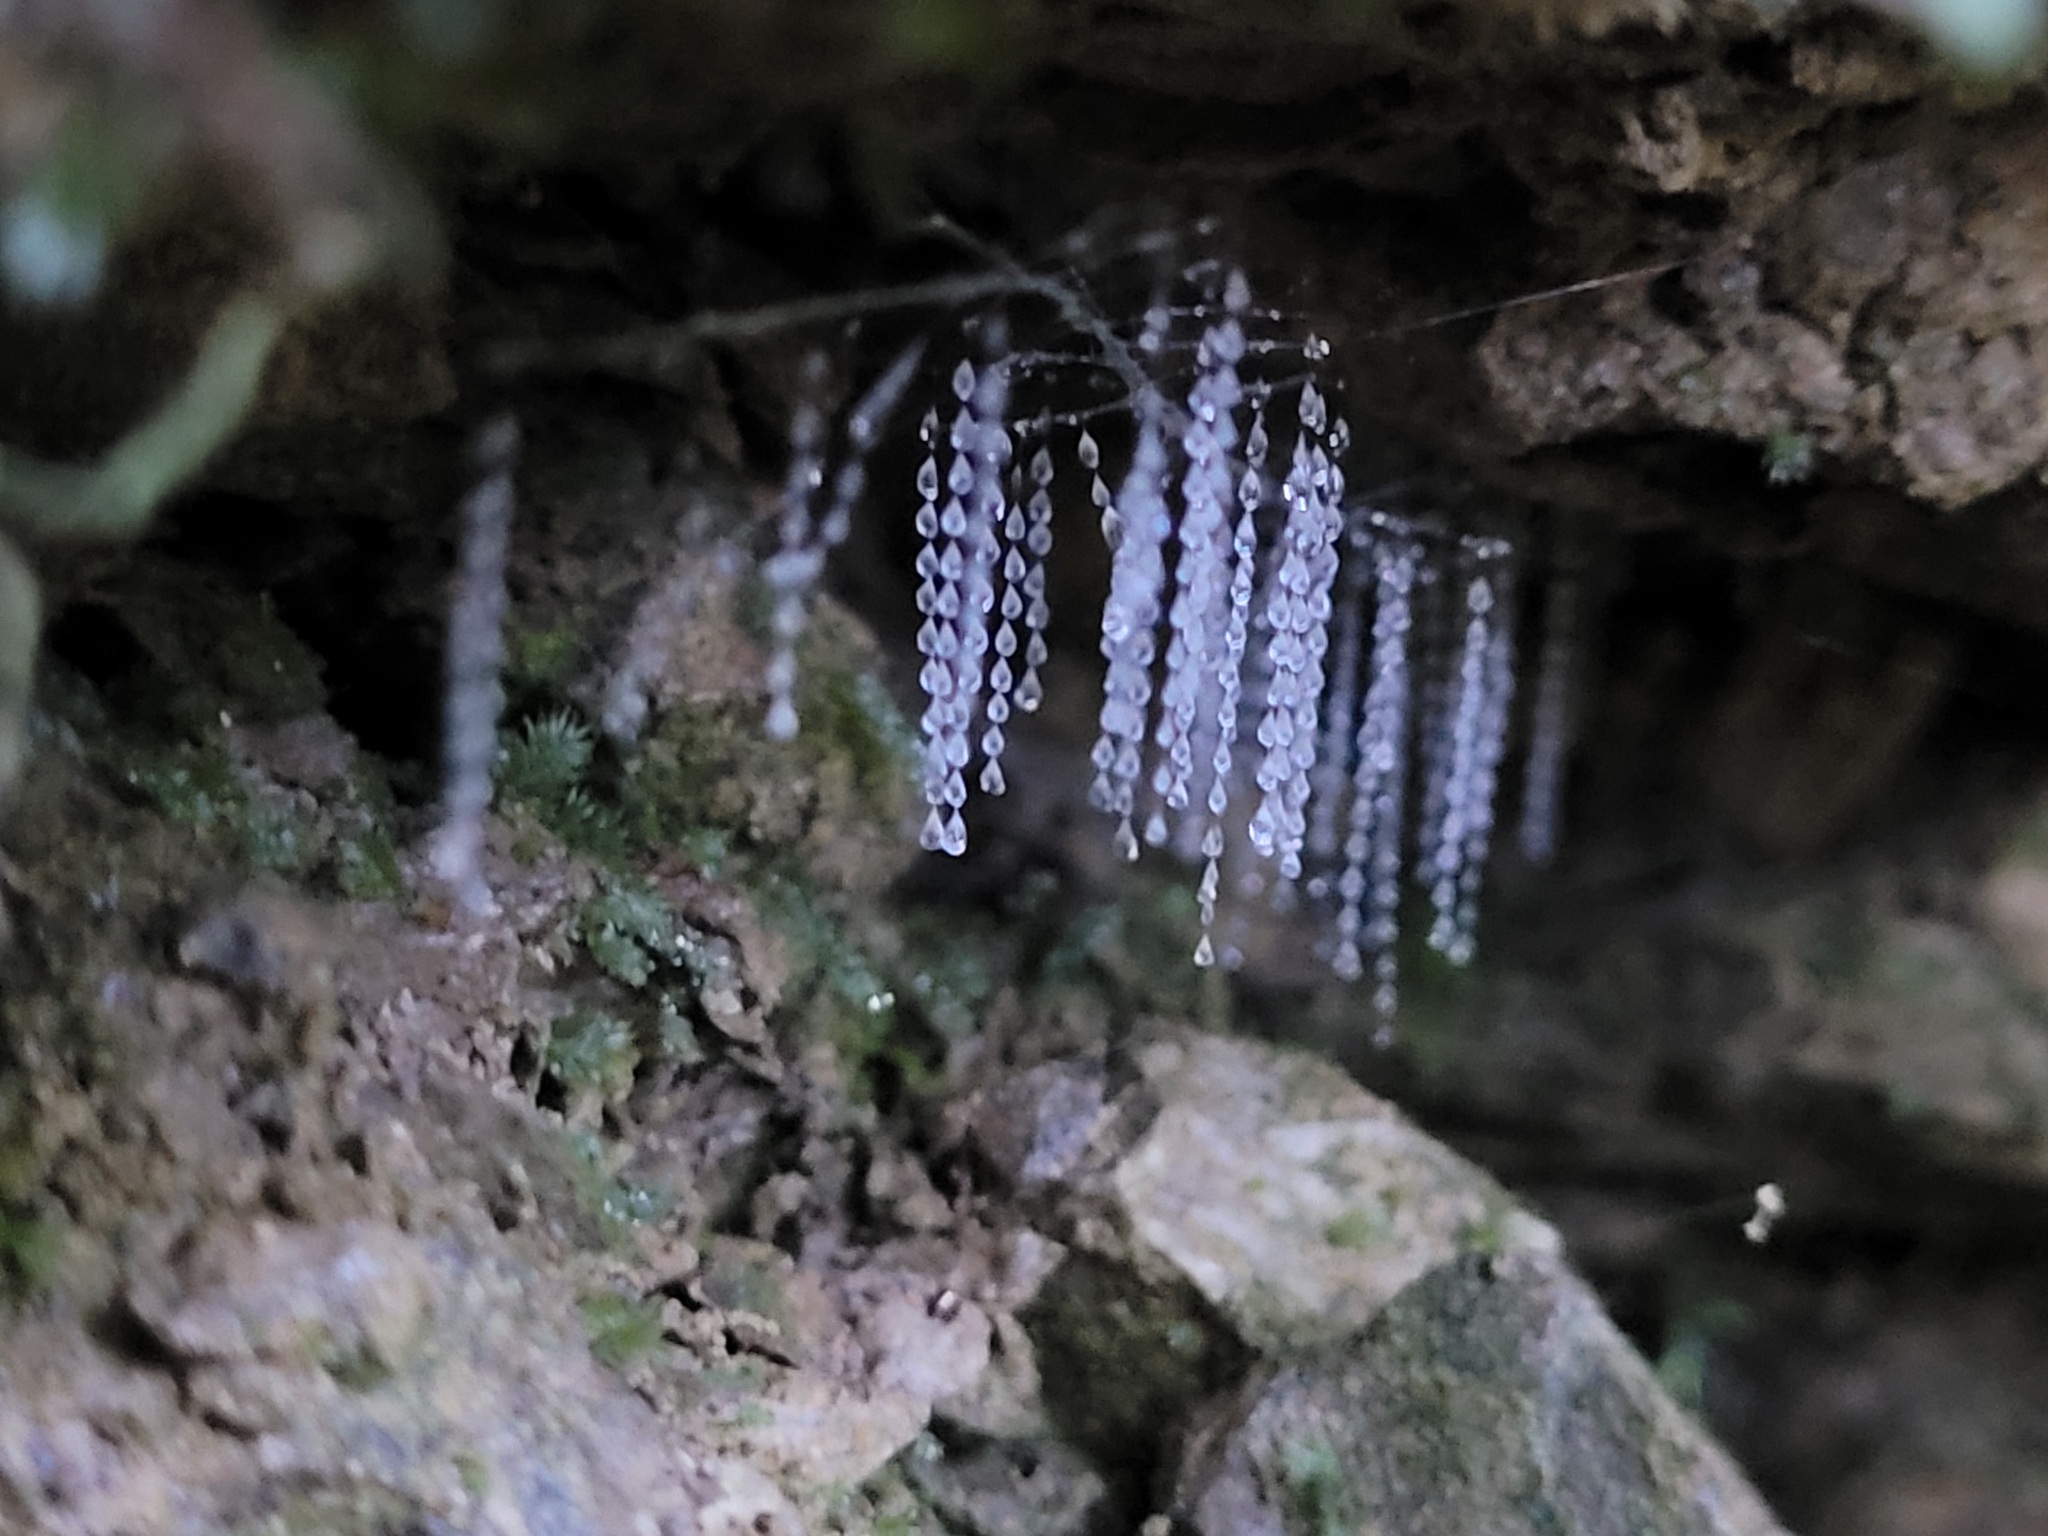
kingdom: Animalia
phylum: Arthropoda
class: Insecta
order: Diptera
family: Keroplatidae
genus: Arachnocampa
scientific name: Arachnocampa luminosa
